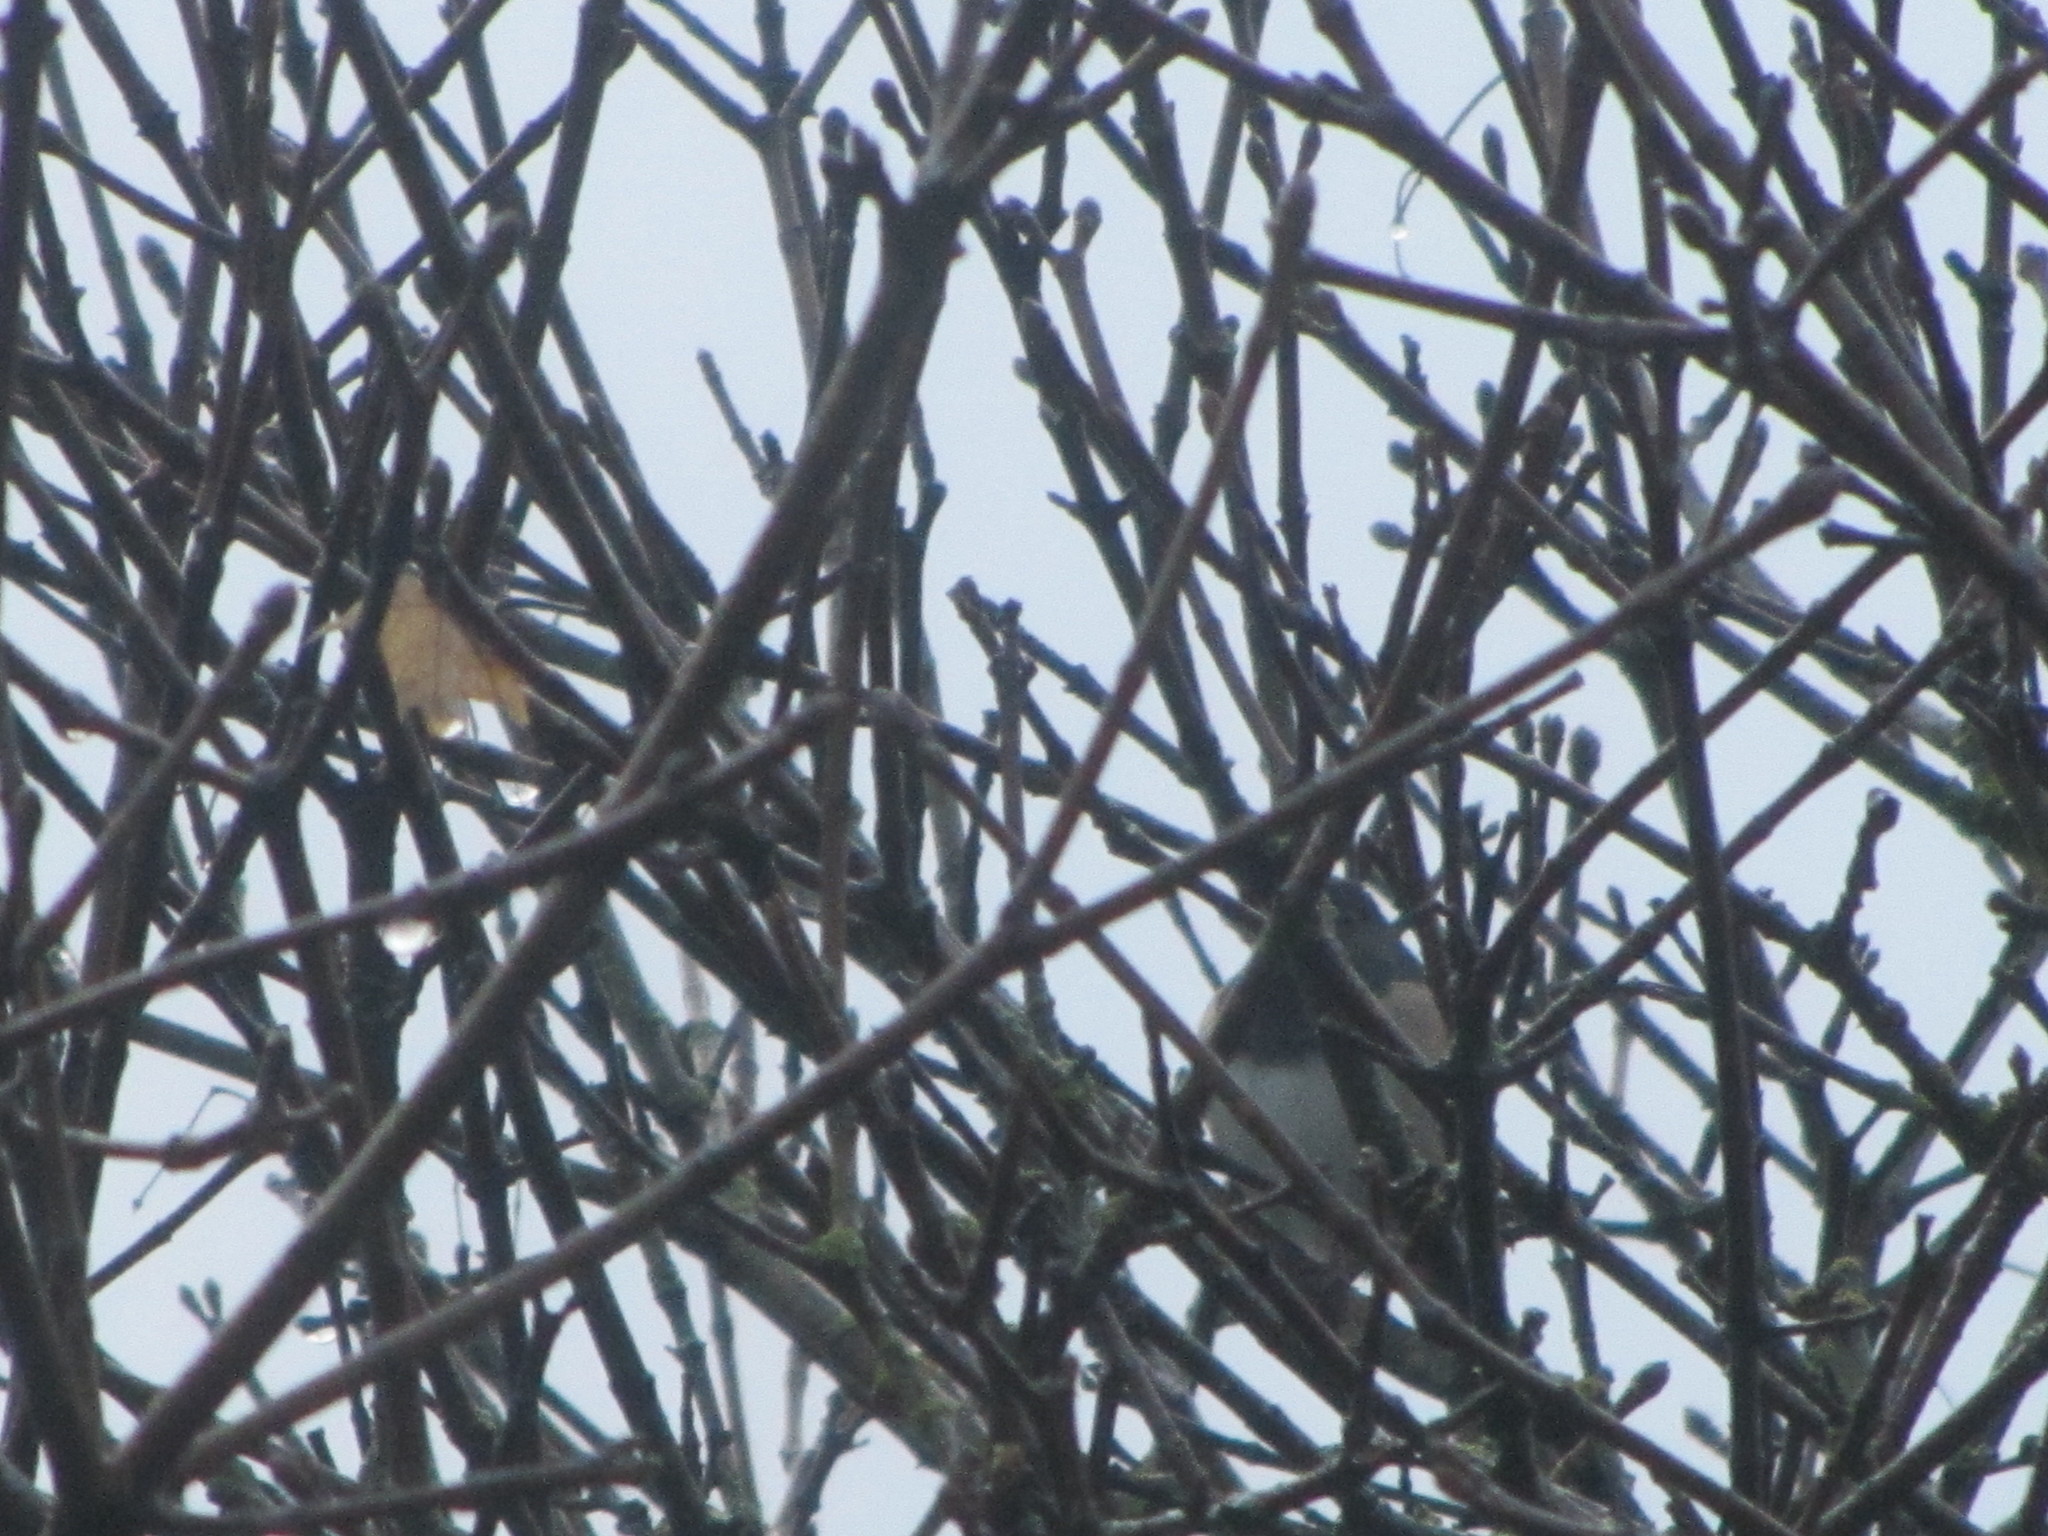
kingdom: Animalia
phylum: Chordata
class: Aves
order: Passeriformes
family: Passerellidae
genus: Junco
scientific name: Junco hyemalis
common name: Dark-eyed junco
